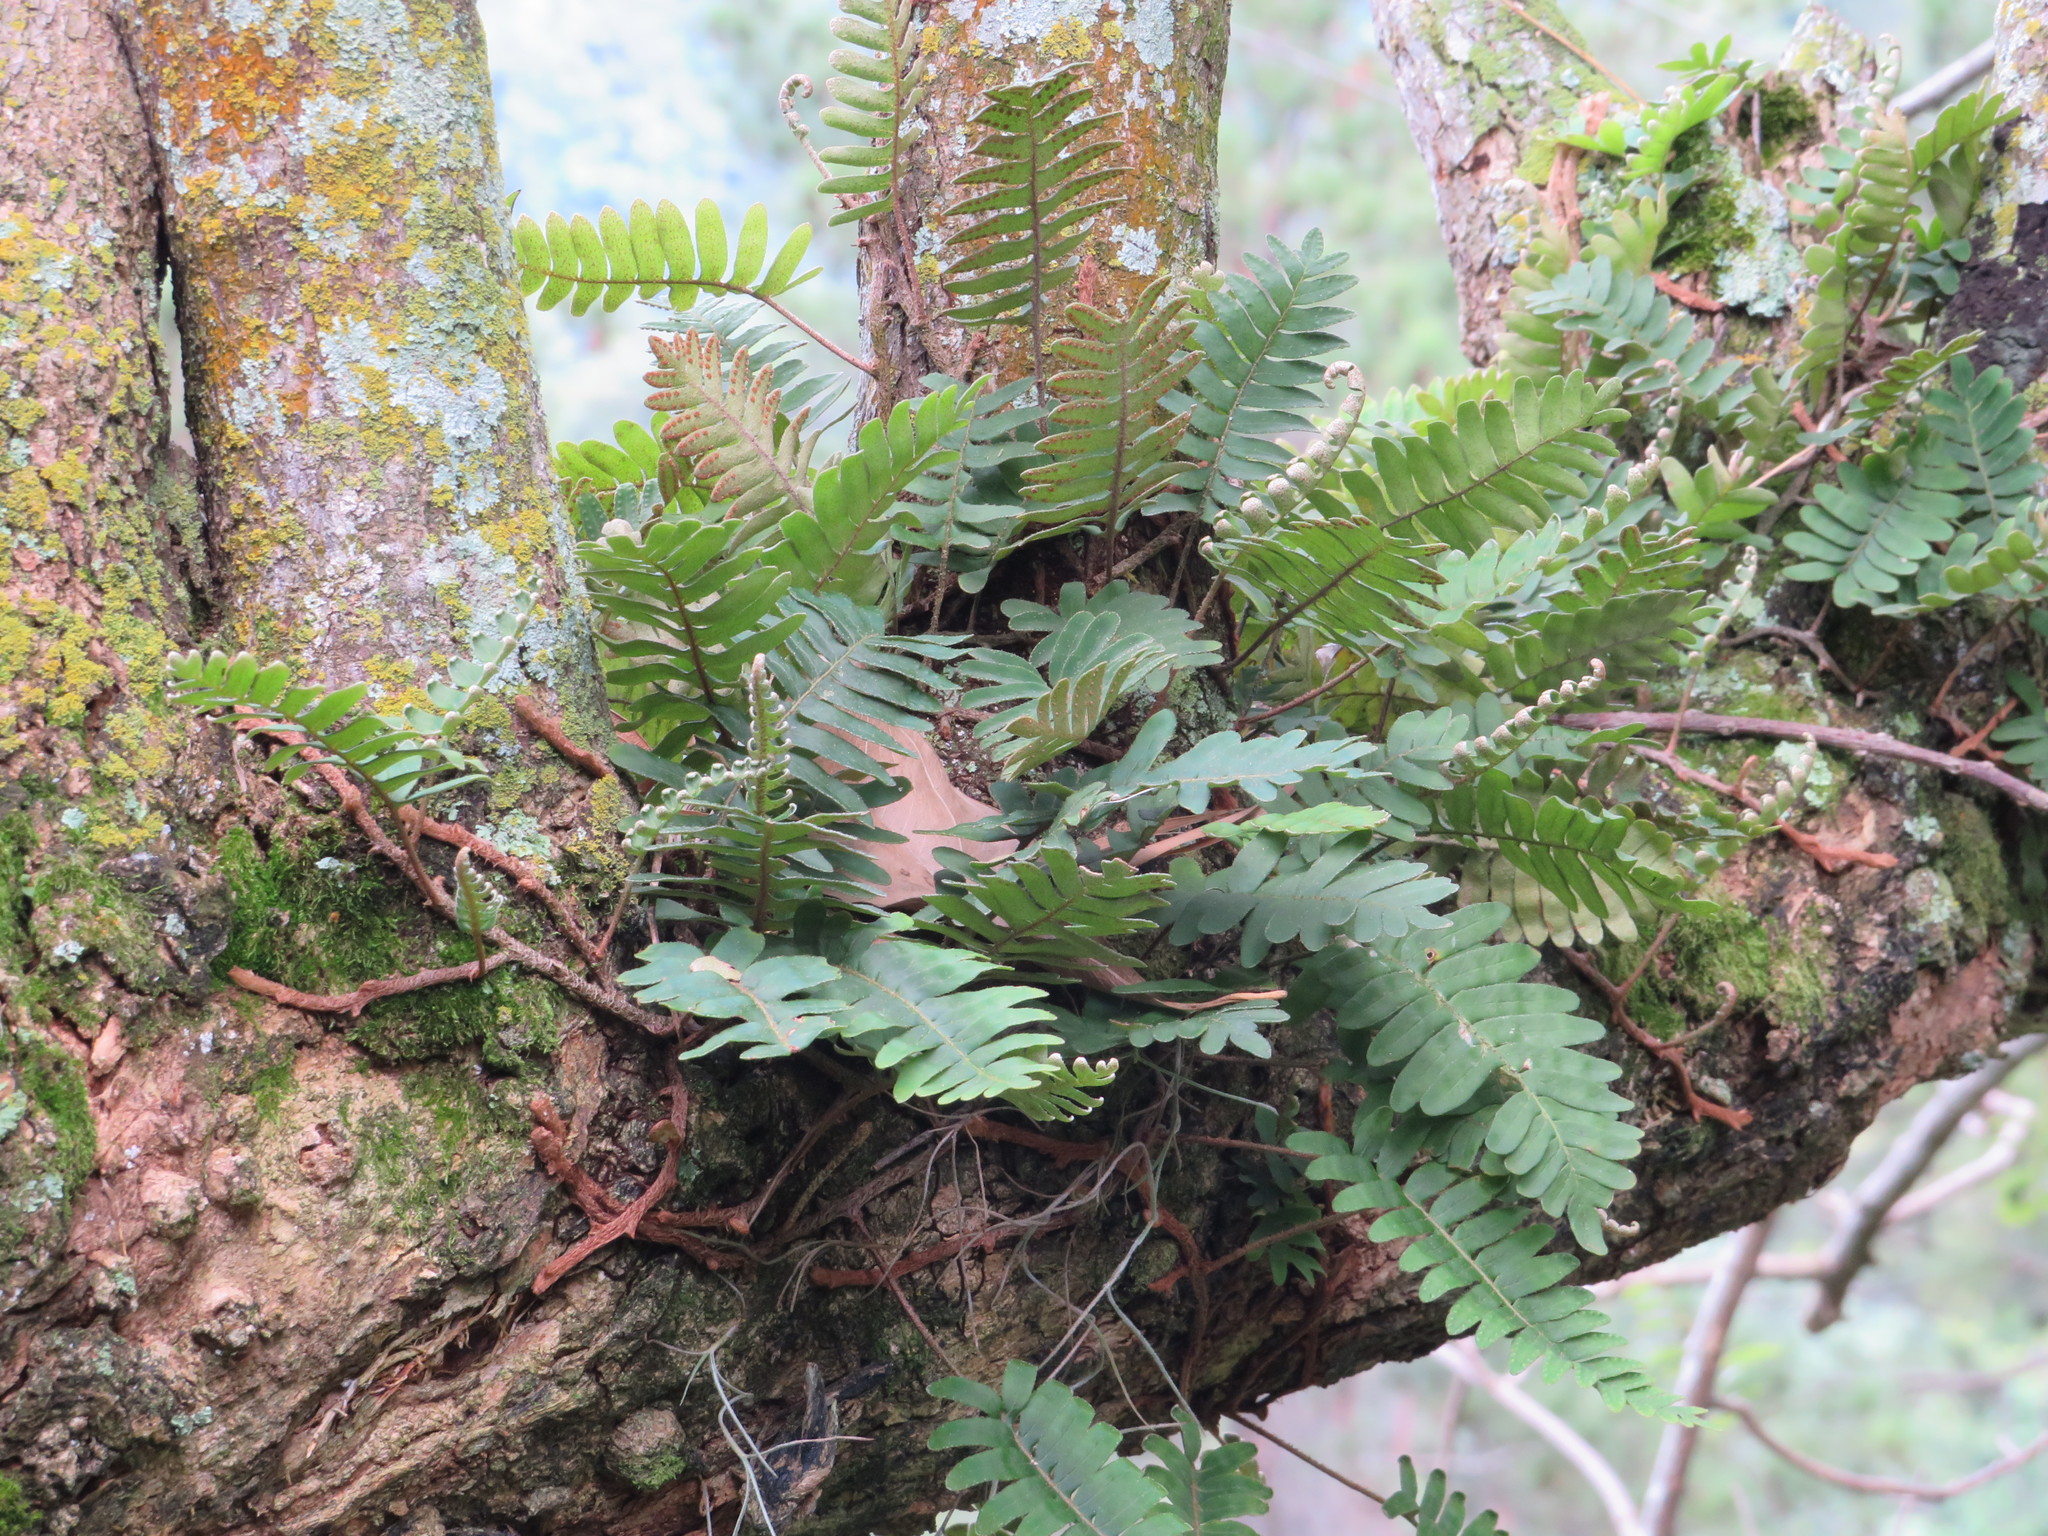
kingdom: Plantae
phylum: Tracheophyta
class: Polypodiopsida
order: Polypodiales
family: Polypodiaceae
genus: Pleopeltis
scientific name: Pleopeltis polypodioides
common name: Resurrection fern
